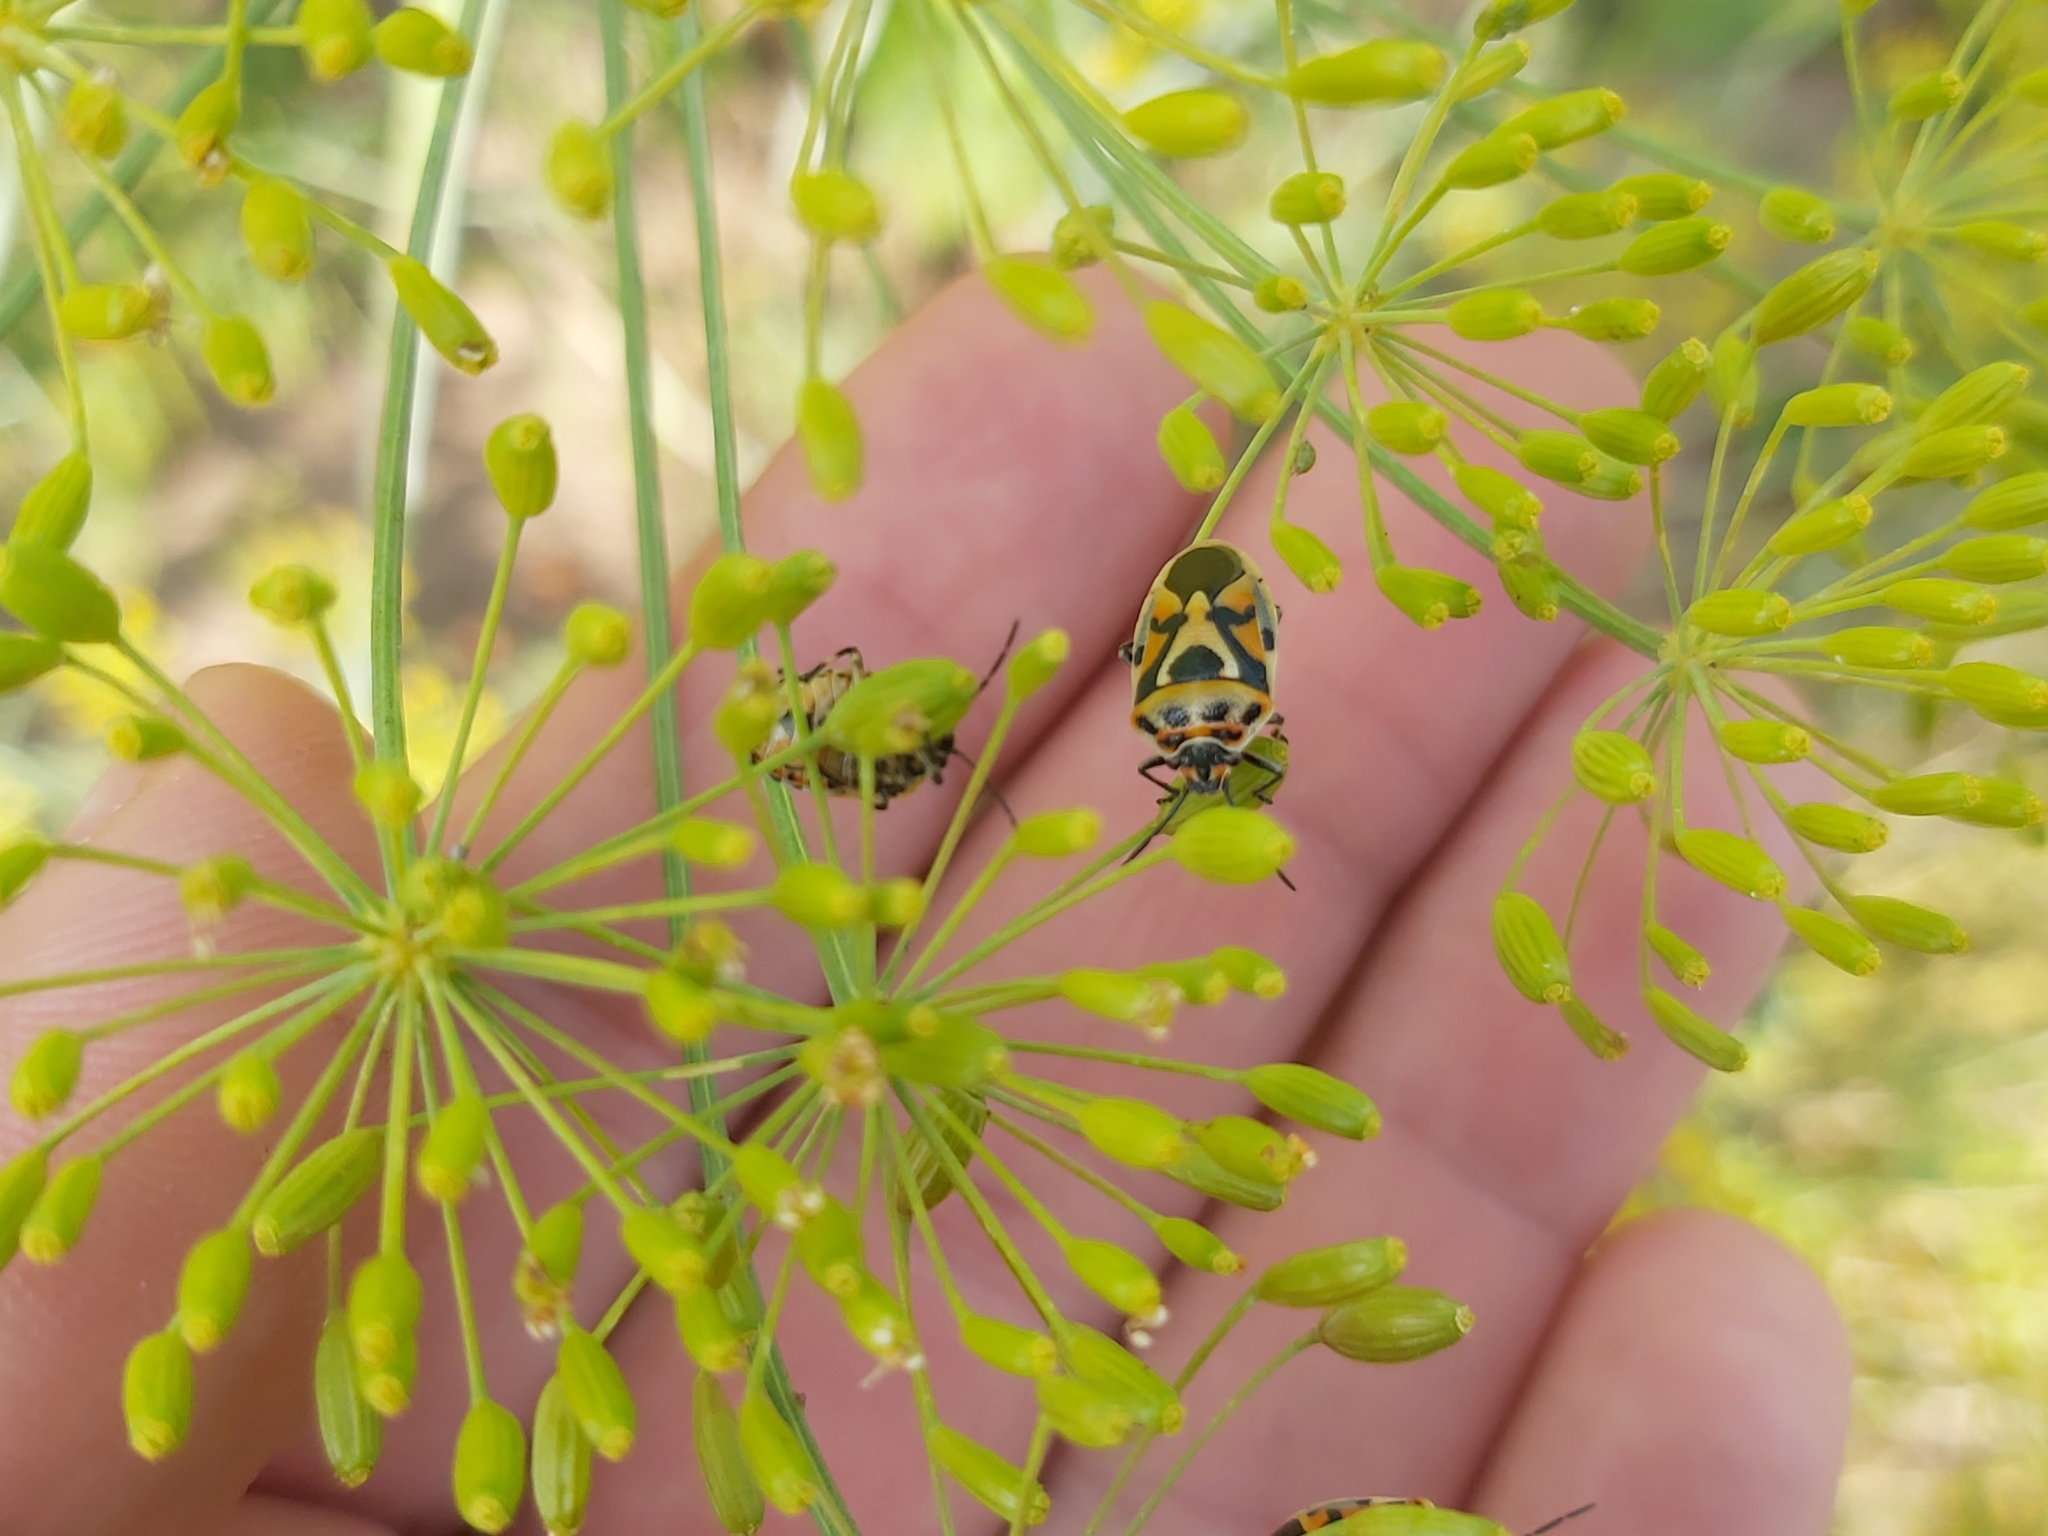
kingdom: Animalia
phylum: Arthropoda
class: Insecta
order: Hemiptera
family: Pentatomidae
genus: Eurydema
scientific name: Eurydema ornata
